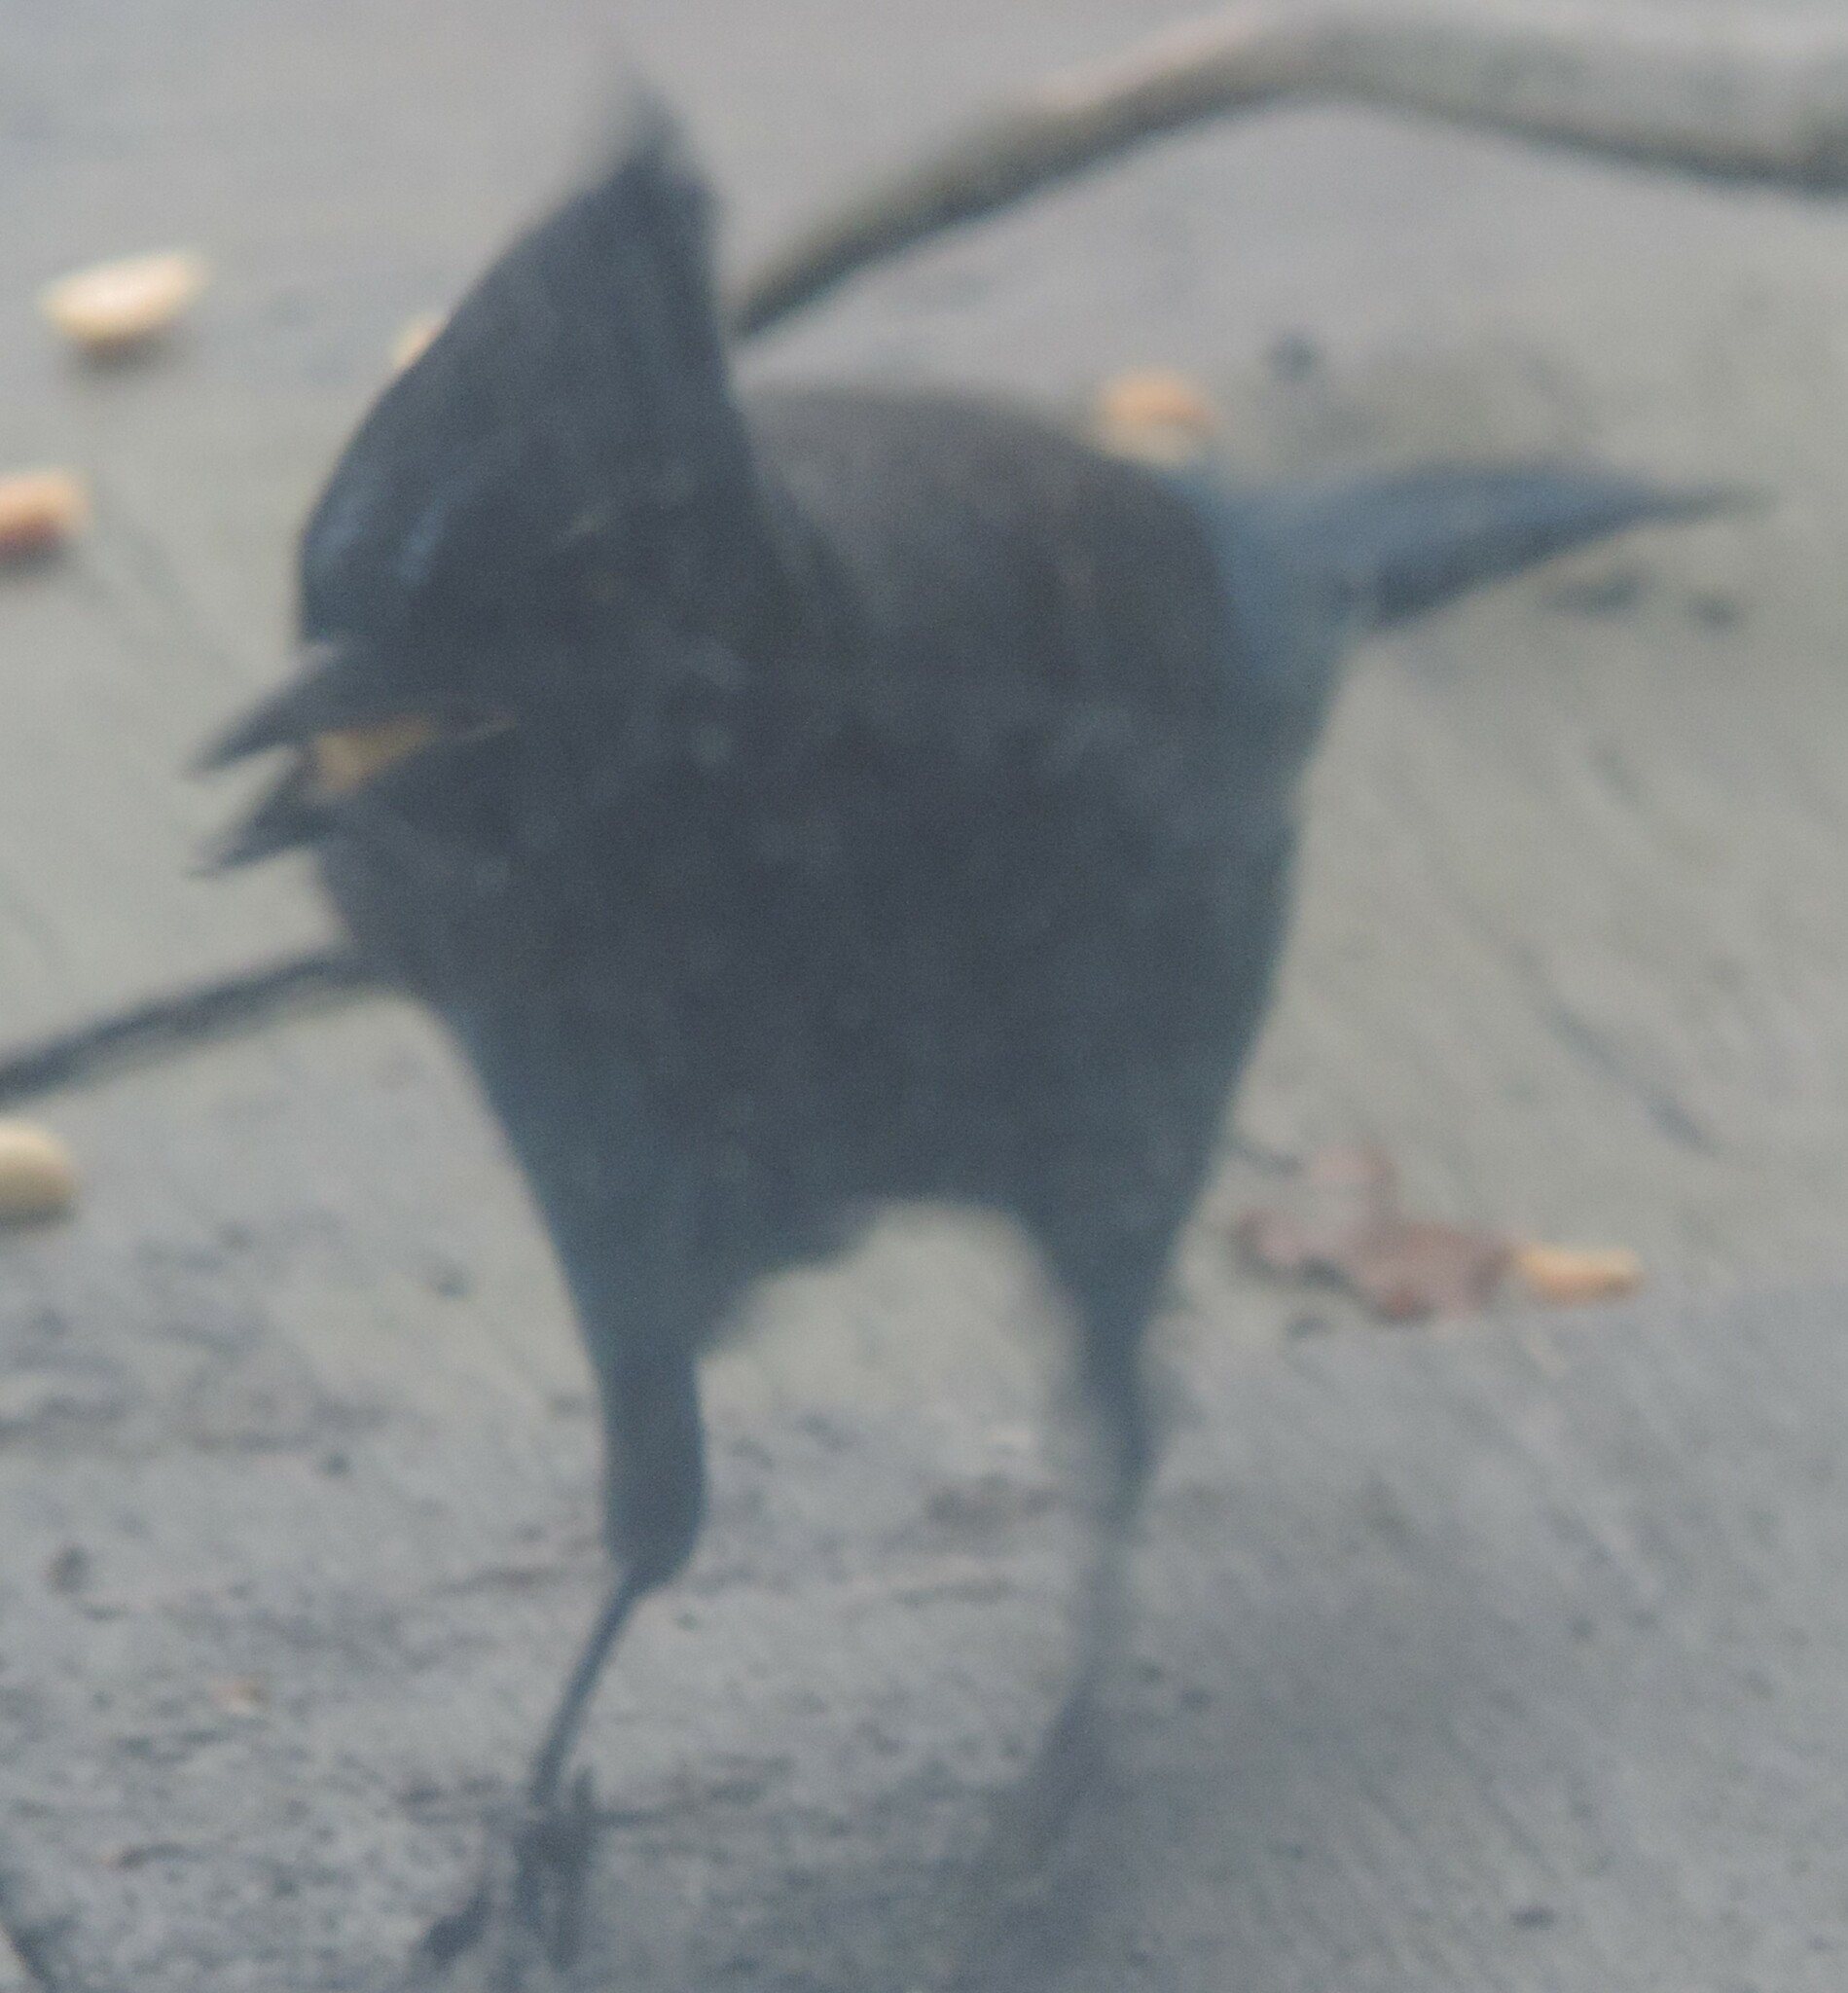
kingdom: Animalia
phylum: Chordata
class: Aves
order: Passeriformes
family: Corvidae
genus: Cyanocitta
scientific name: Cyanocitta stelleri
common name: Steller's jay
